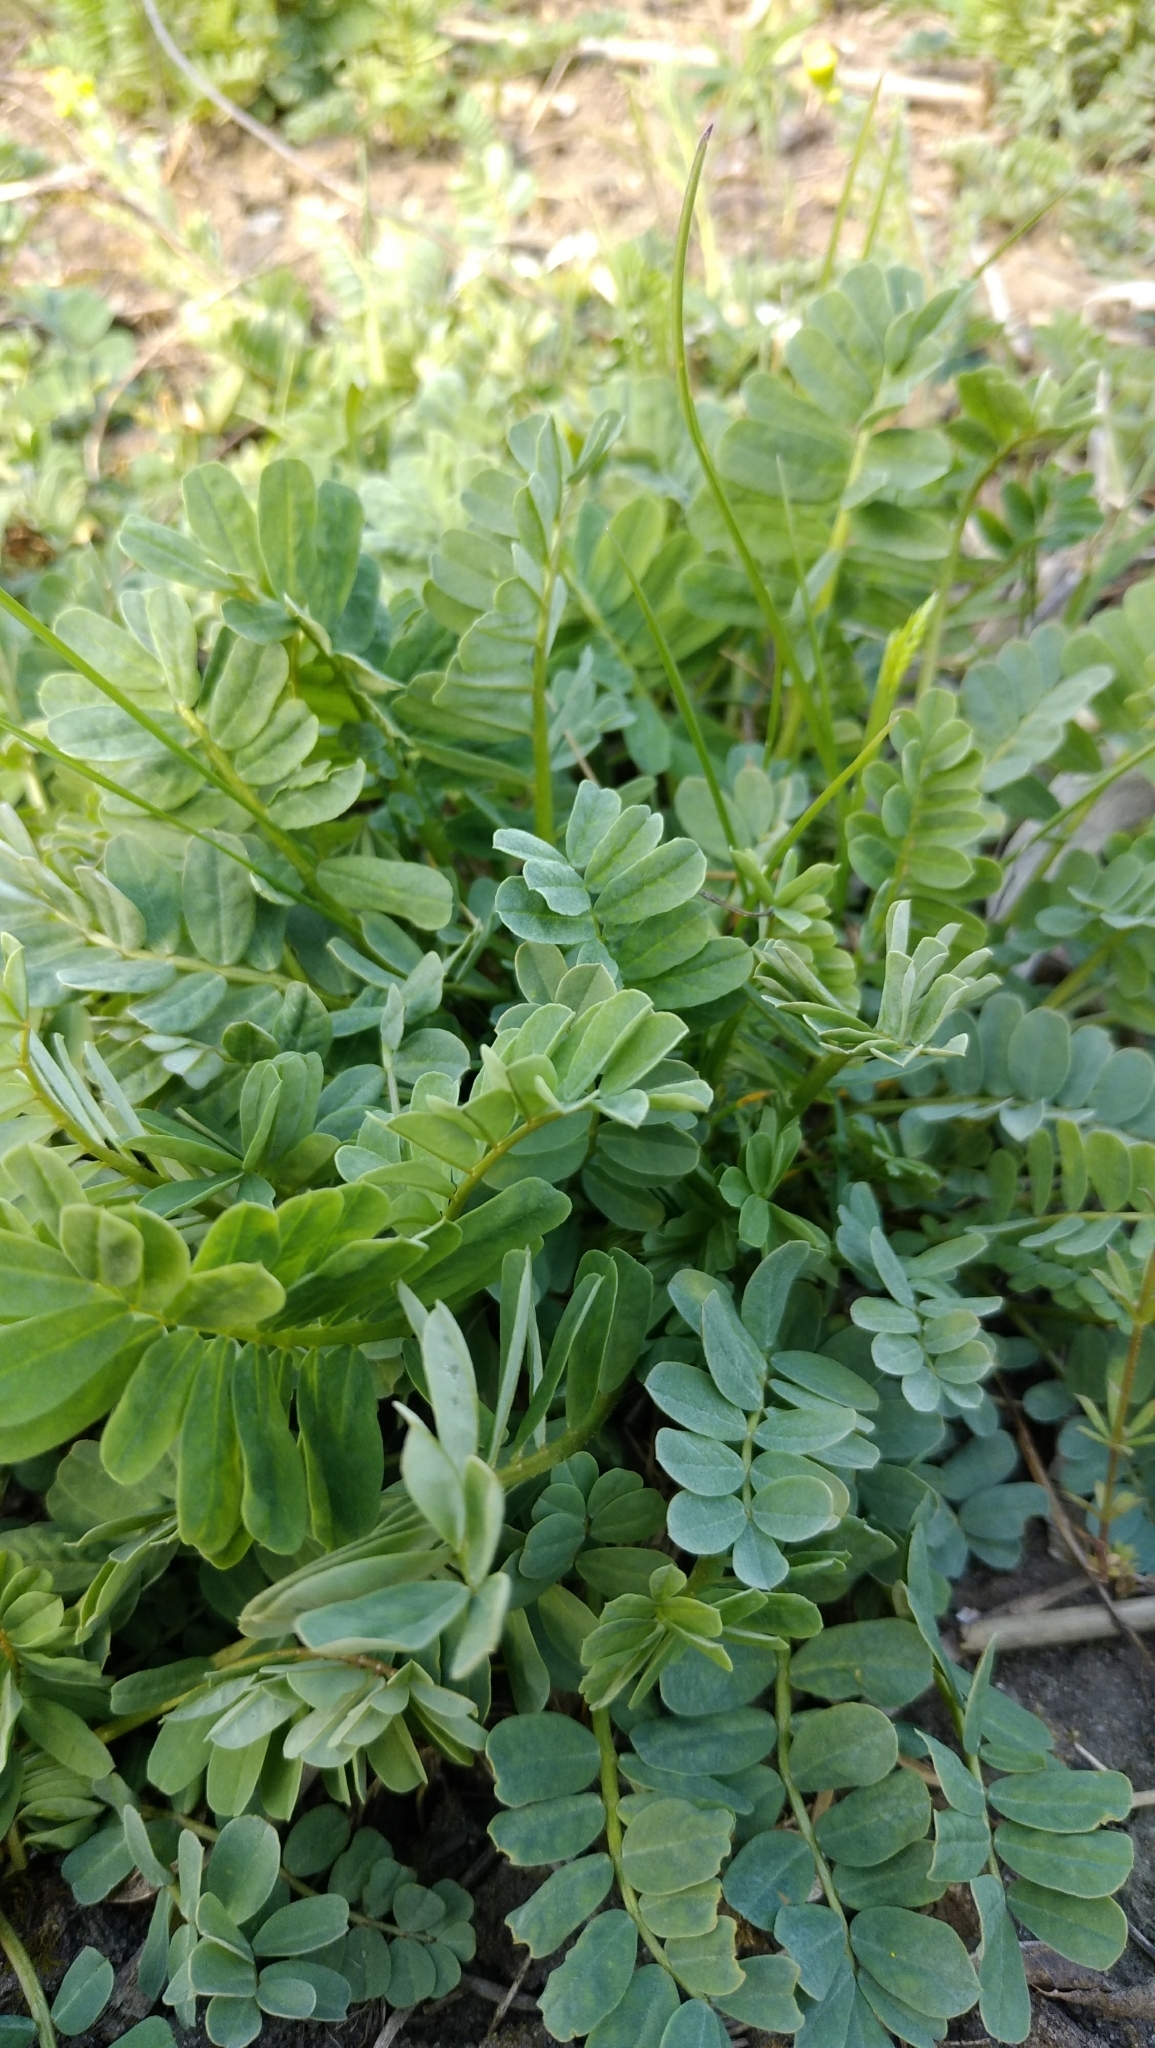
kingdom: Plantae
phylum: Tracheophyta
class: Magnoliopsida
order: Fabales
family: Fabaceae
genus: Coronilla
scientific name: Coronilla varia
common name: Crownvetch
